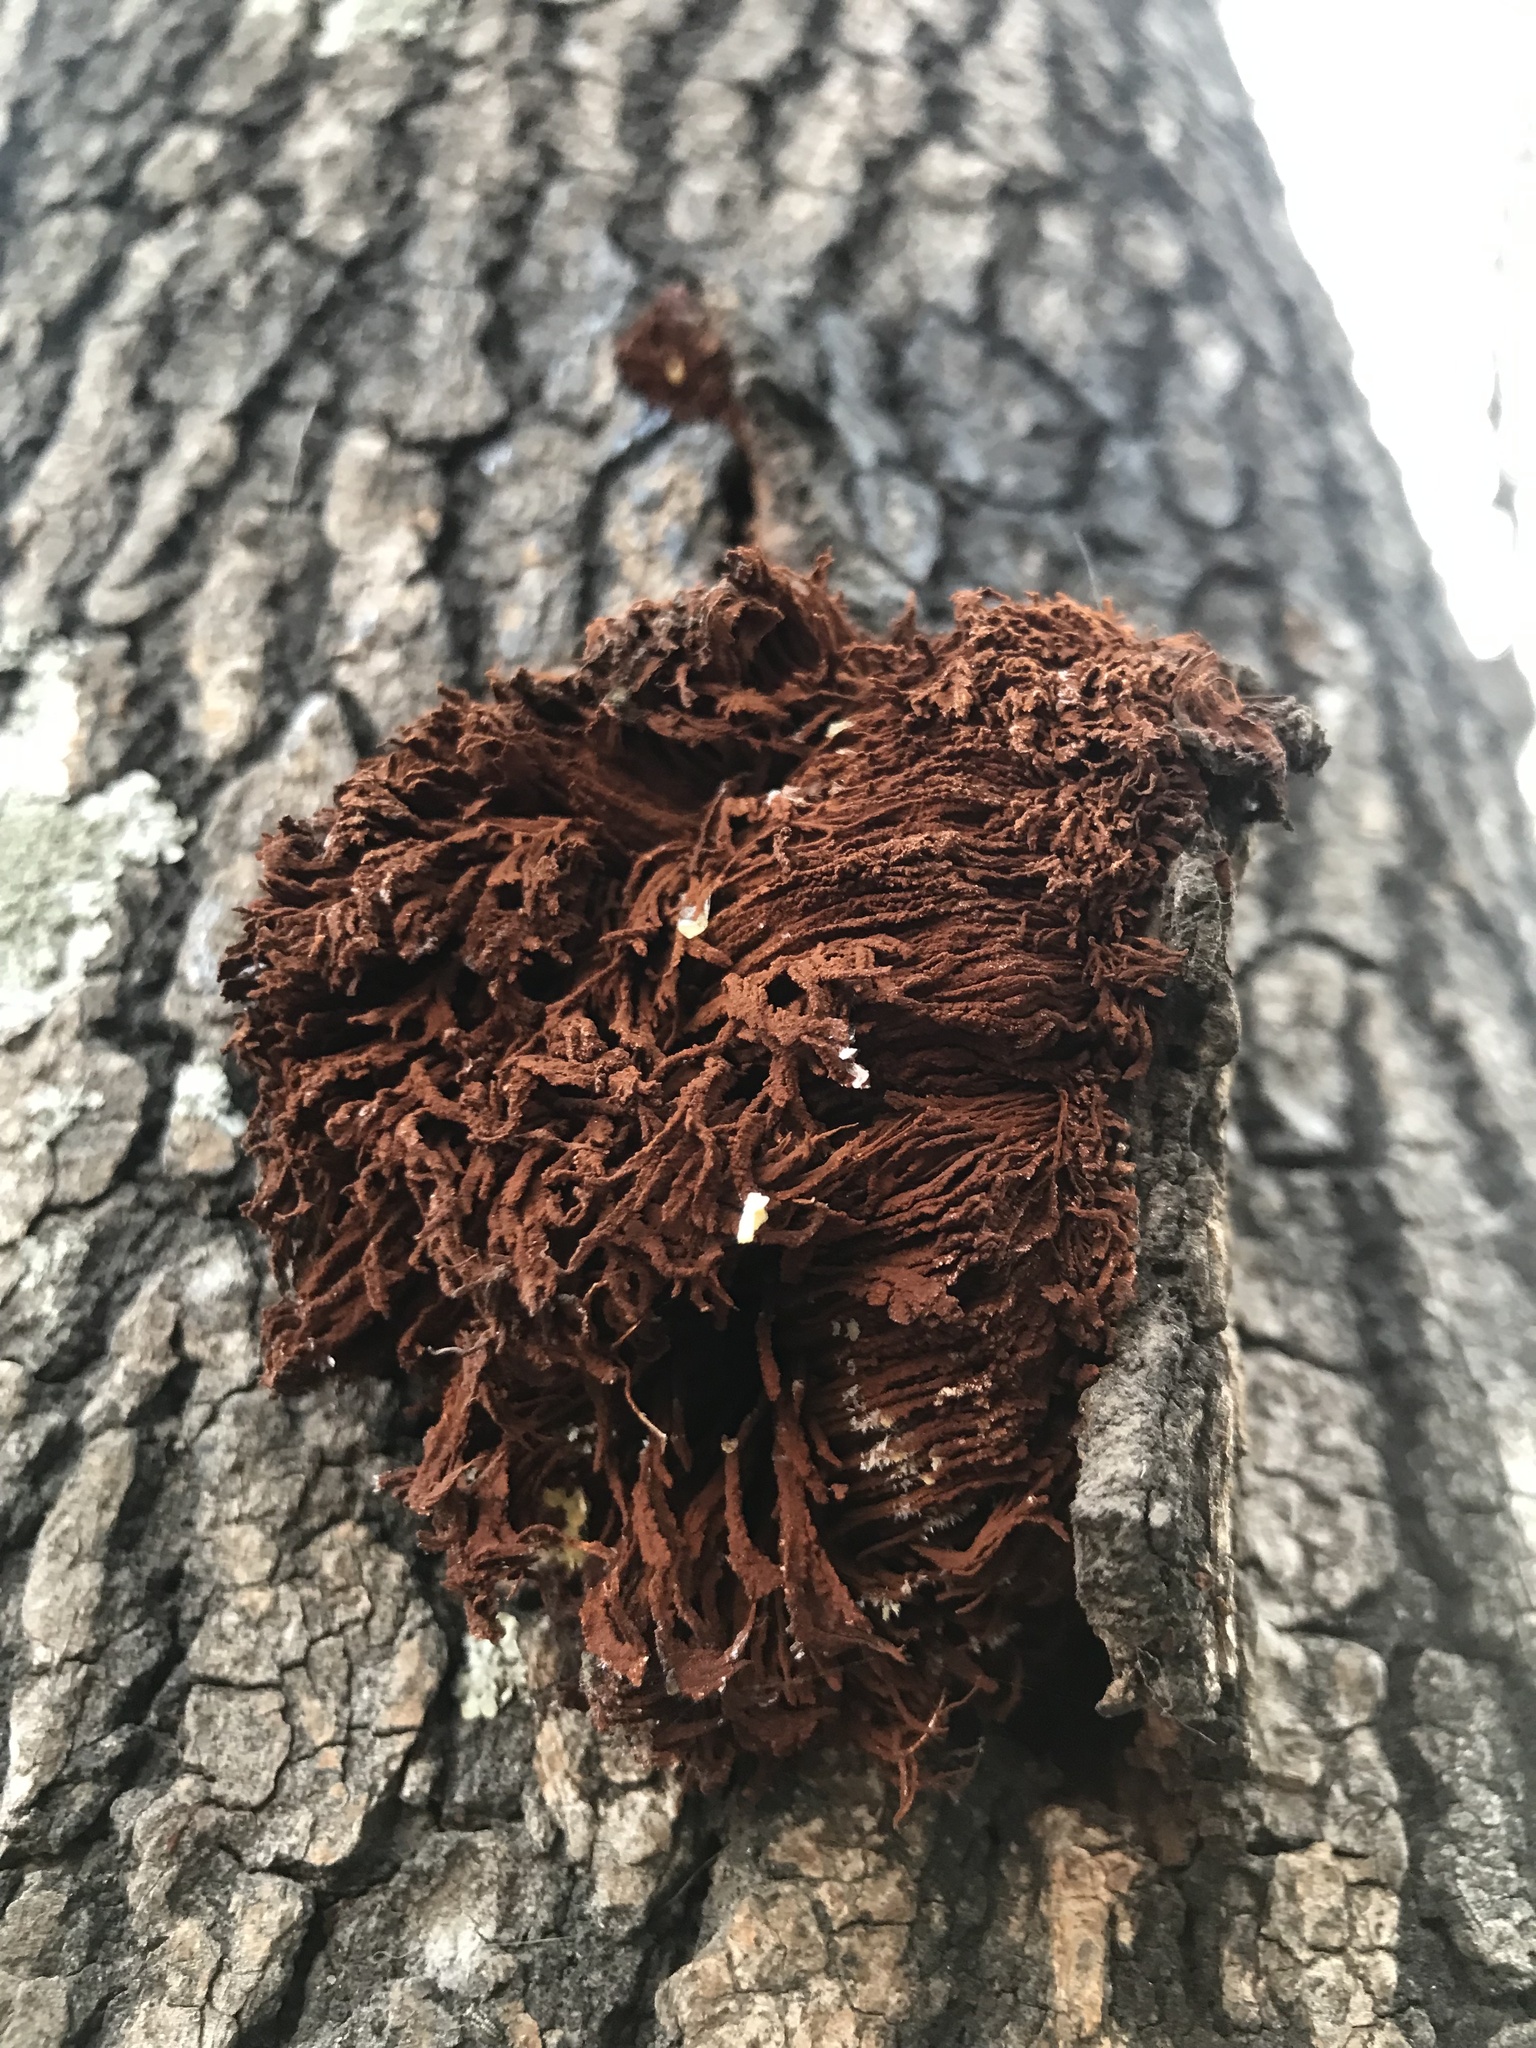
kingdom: Fungi
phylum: Basidiomycota
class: Agaricomycetes
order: Hymenochaetales
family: Hymenochaetaceae
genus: Inonotus
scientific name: Inonotus rickii
